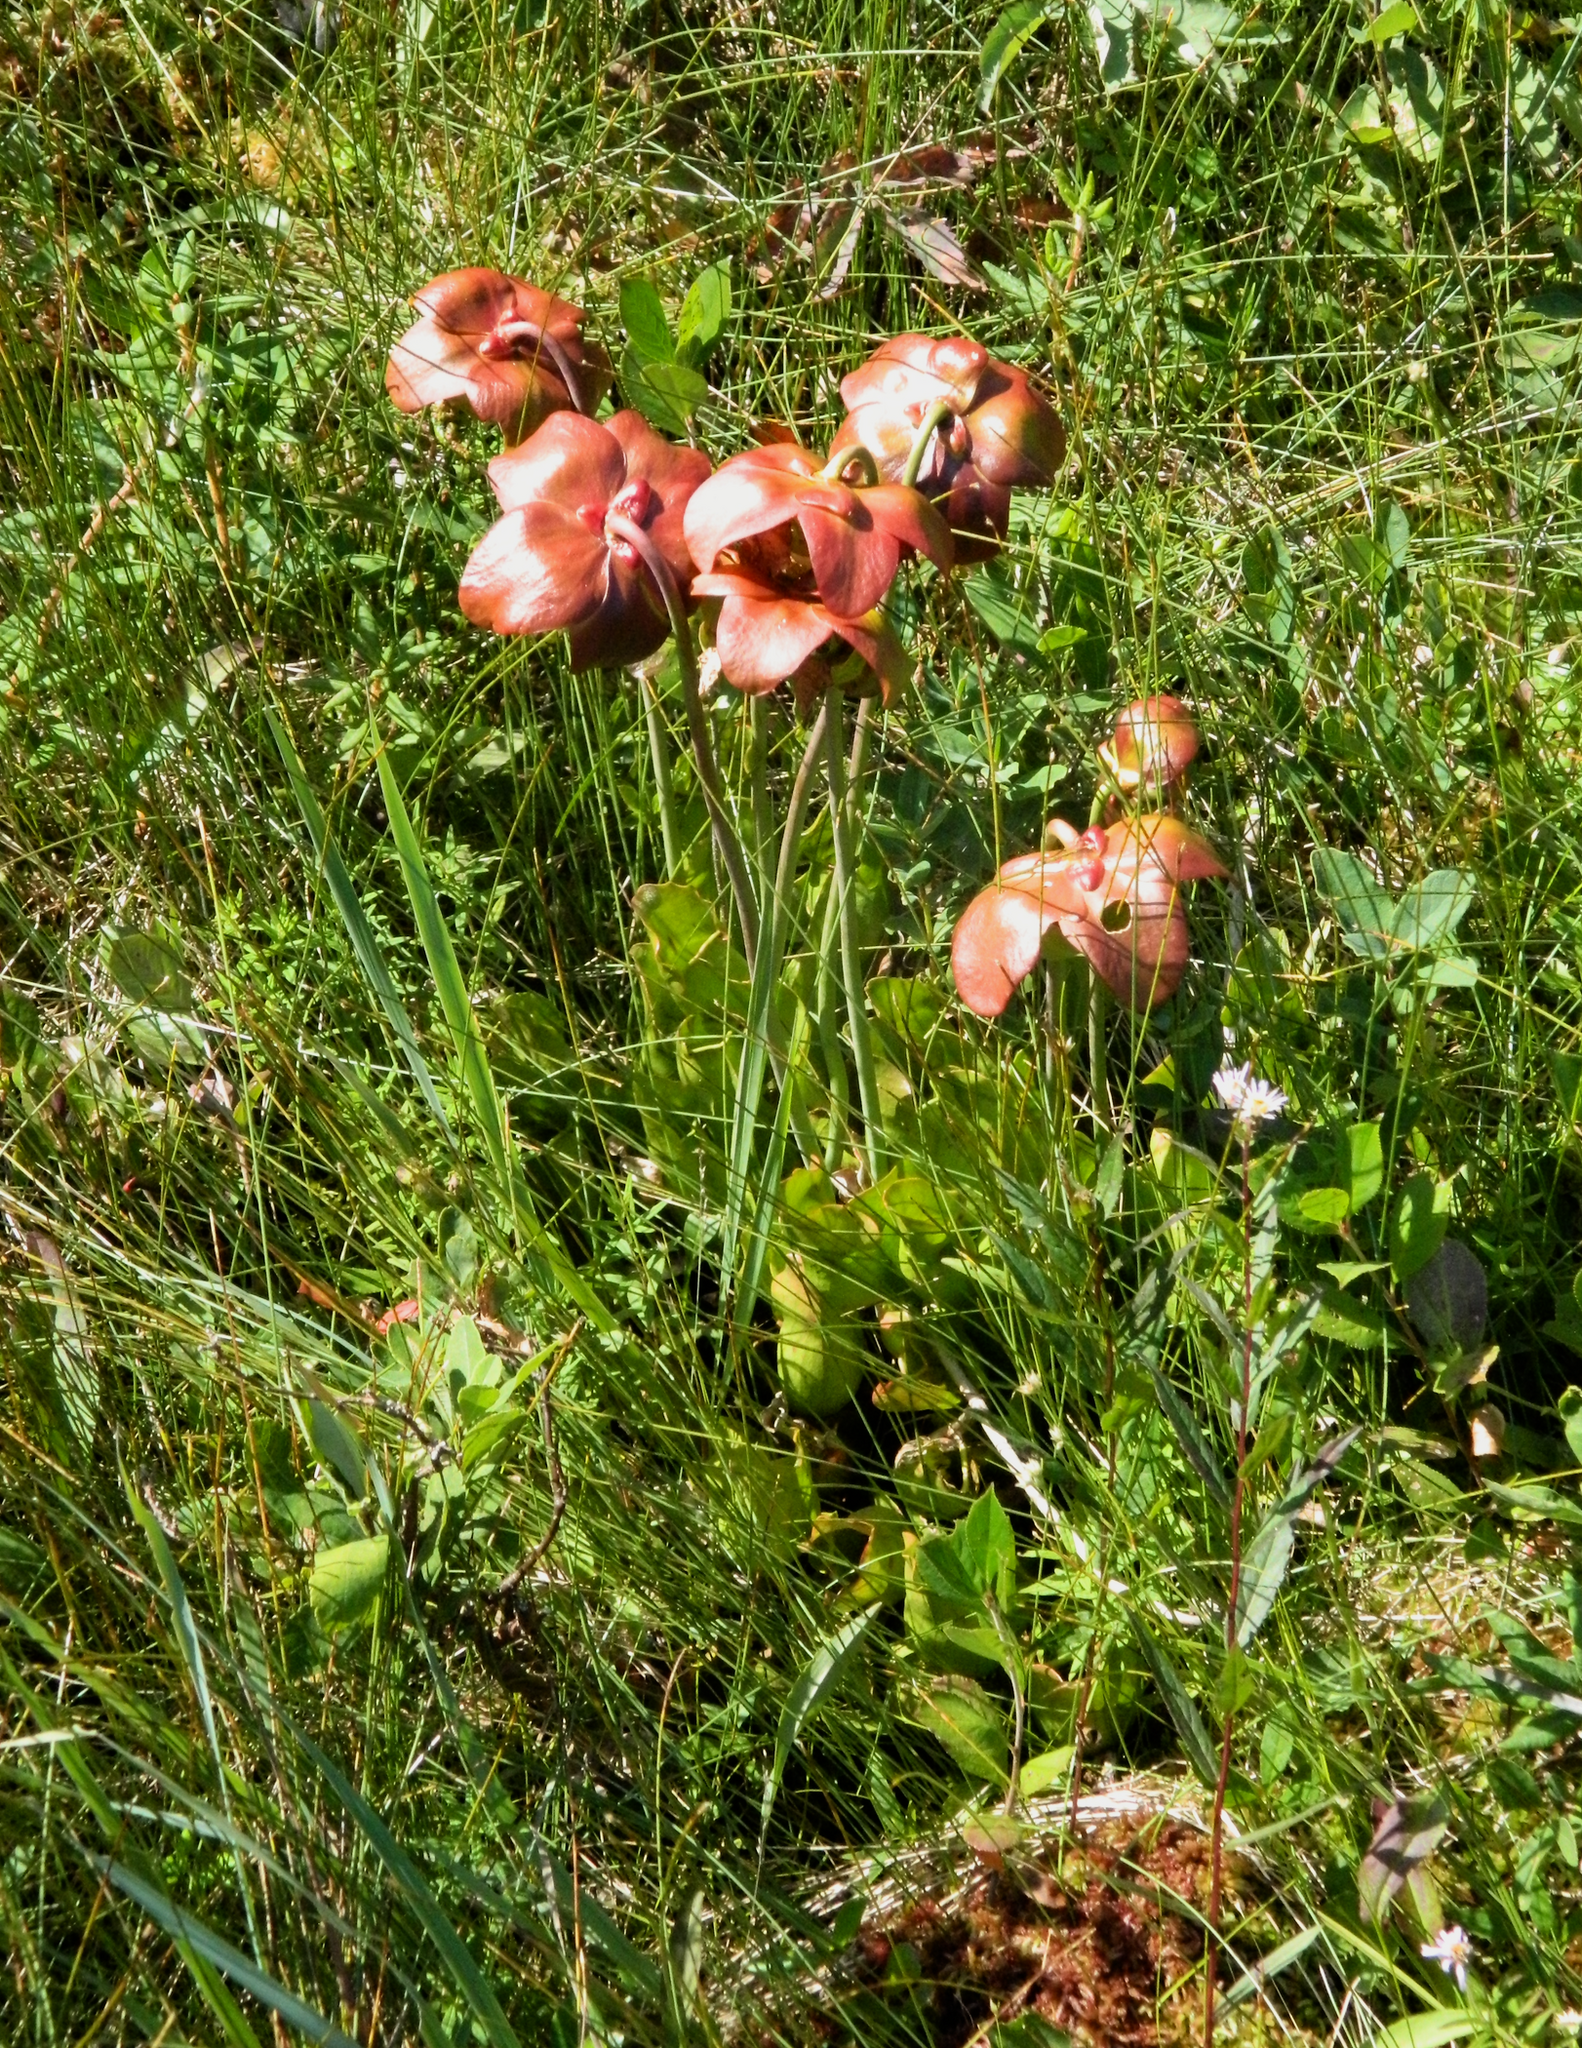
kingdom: Plantae
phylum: Tracheophyta
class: Magnoliopsida
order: Ericales
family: Sarraceniaceae
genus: Sarracenia
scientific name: Sarracenia purpurea
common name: Pitcherplant
